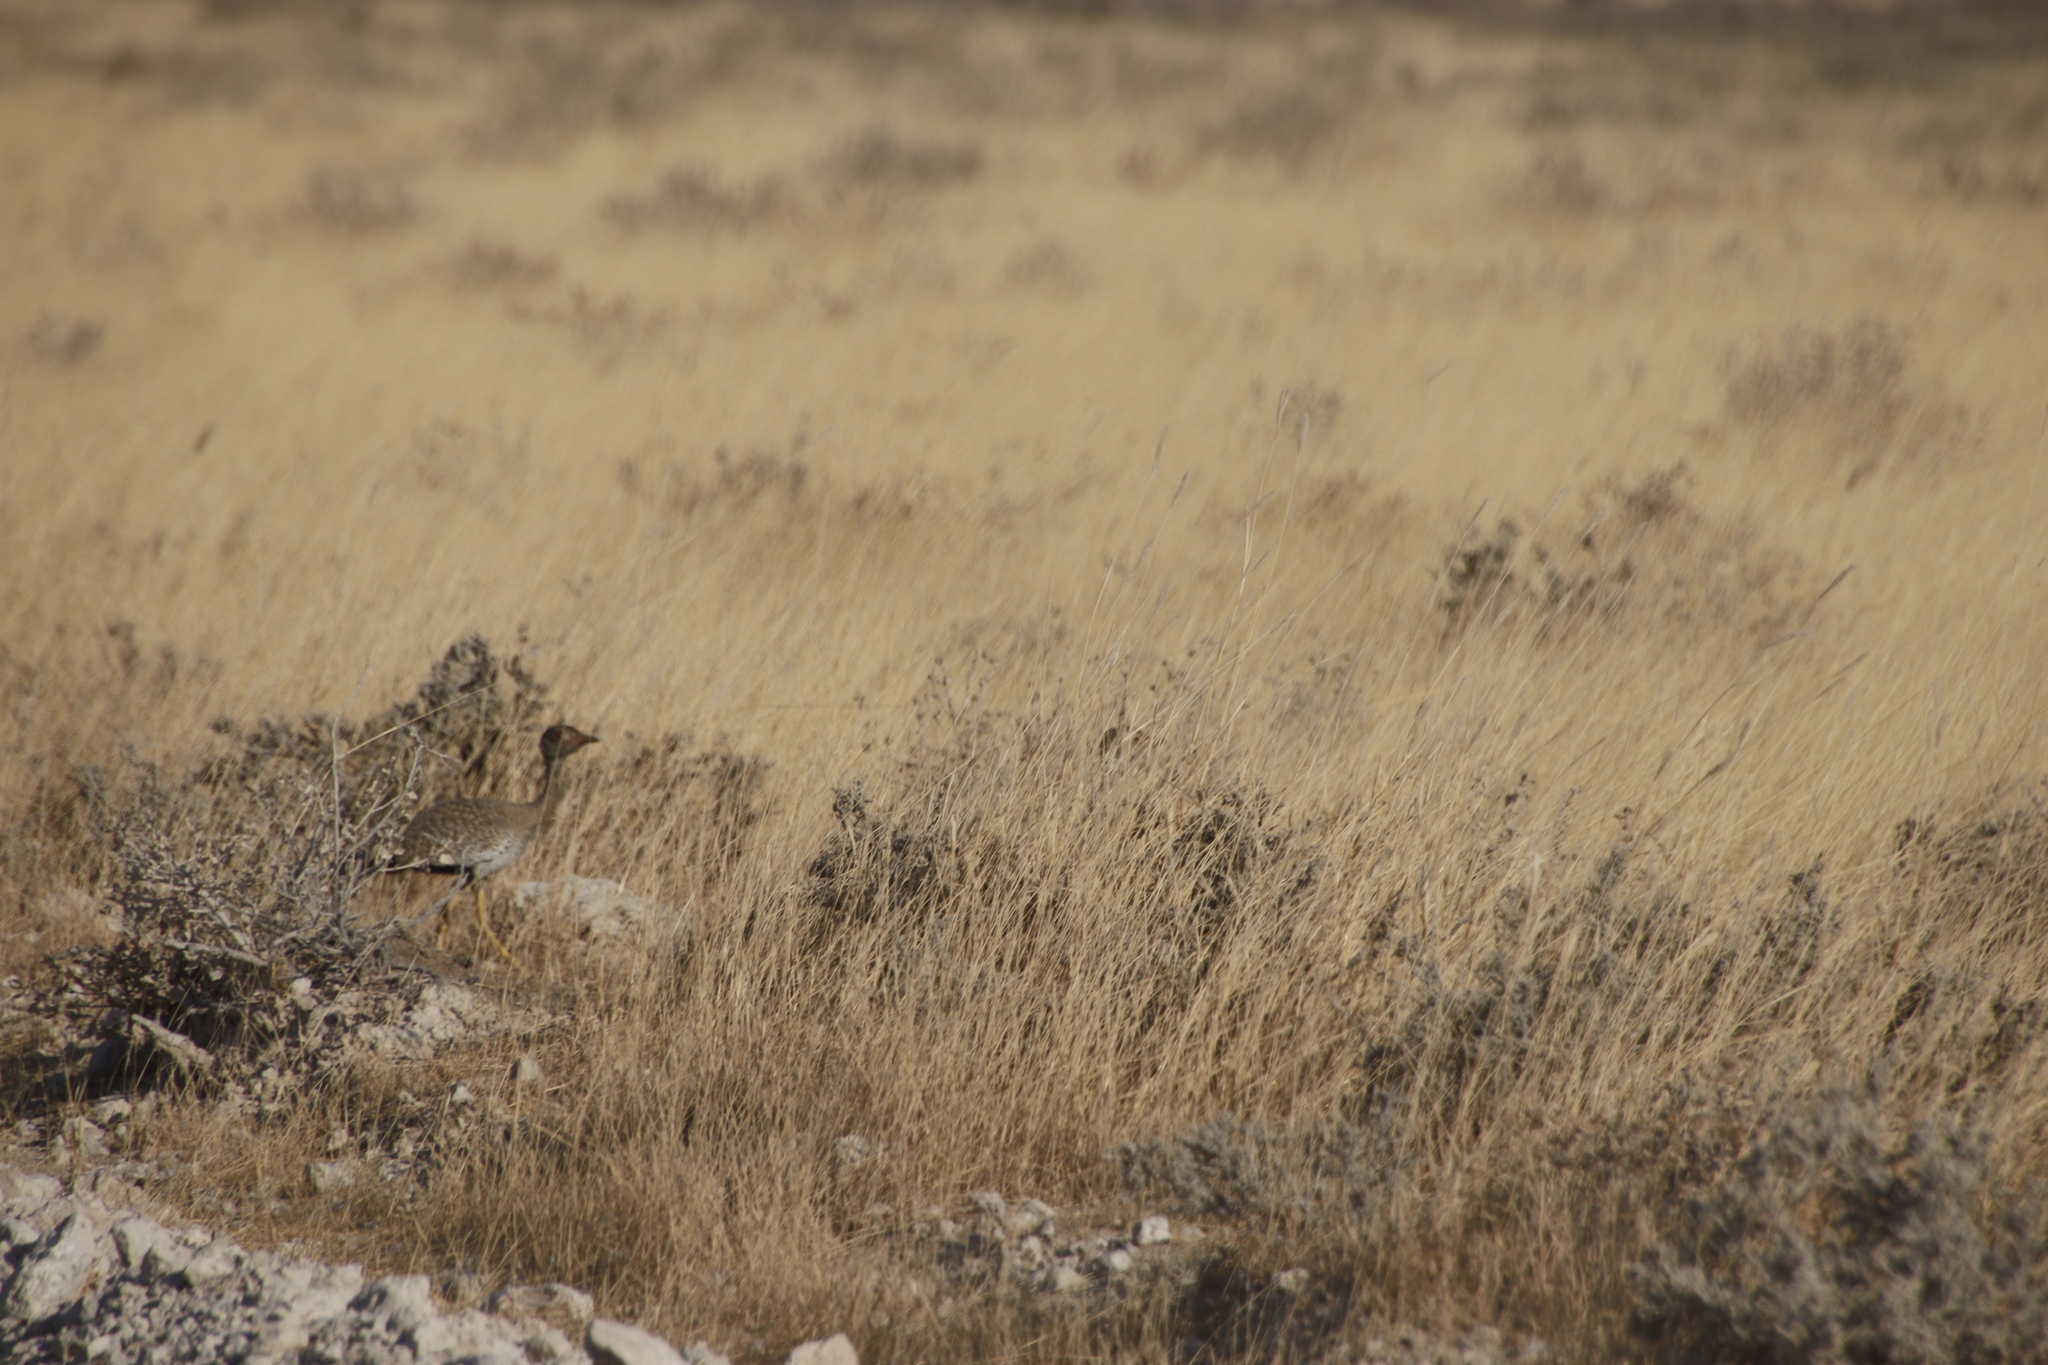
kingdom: Animalia
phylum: Chordata
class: Aves
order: Otidiformes
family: Otididae
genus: Afrotis
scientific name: Afrotis afraoides
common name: Northern black korhaan
